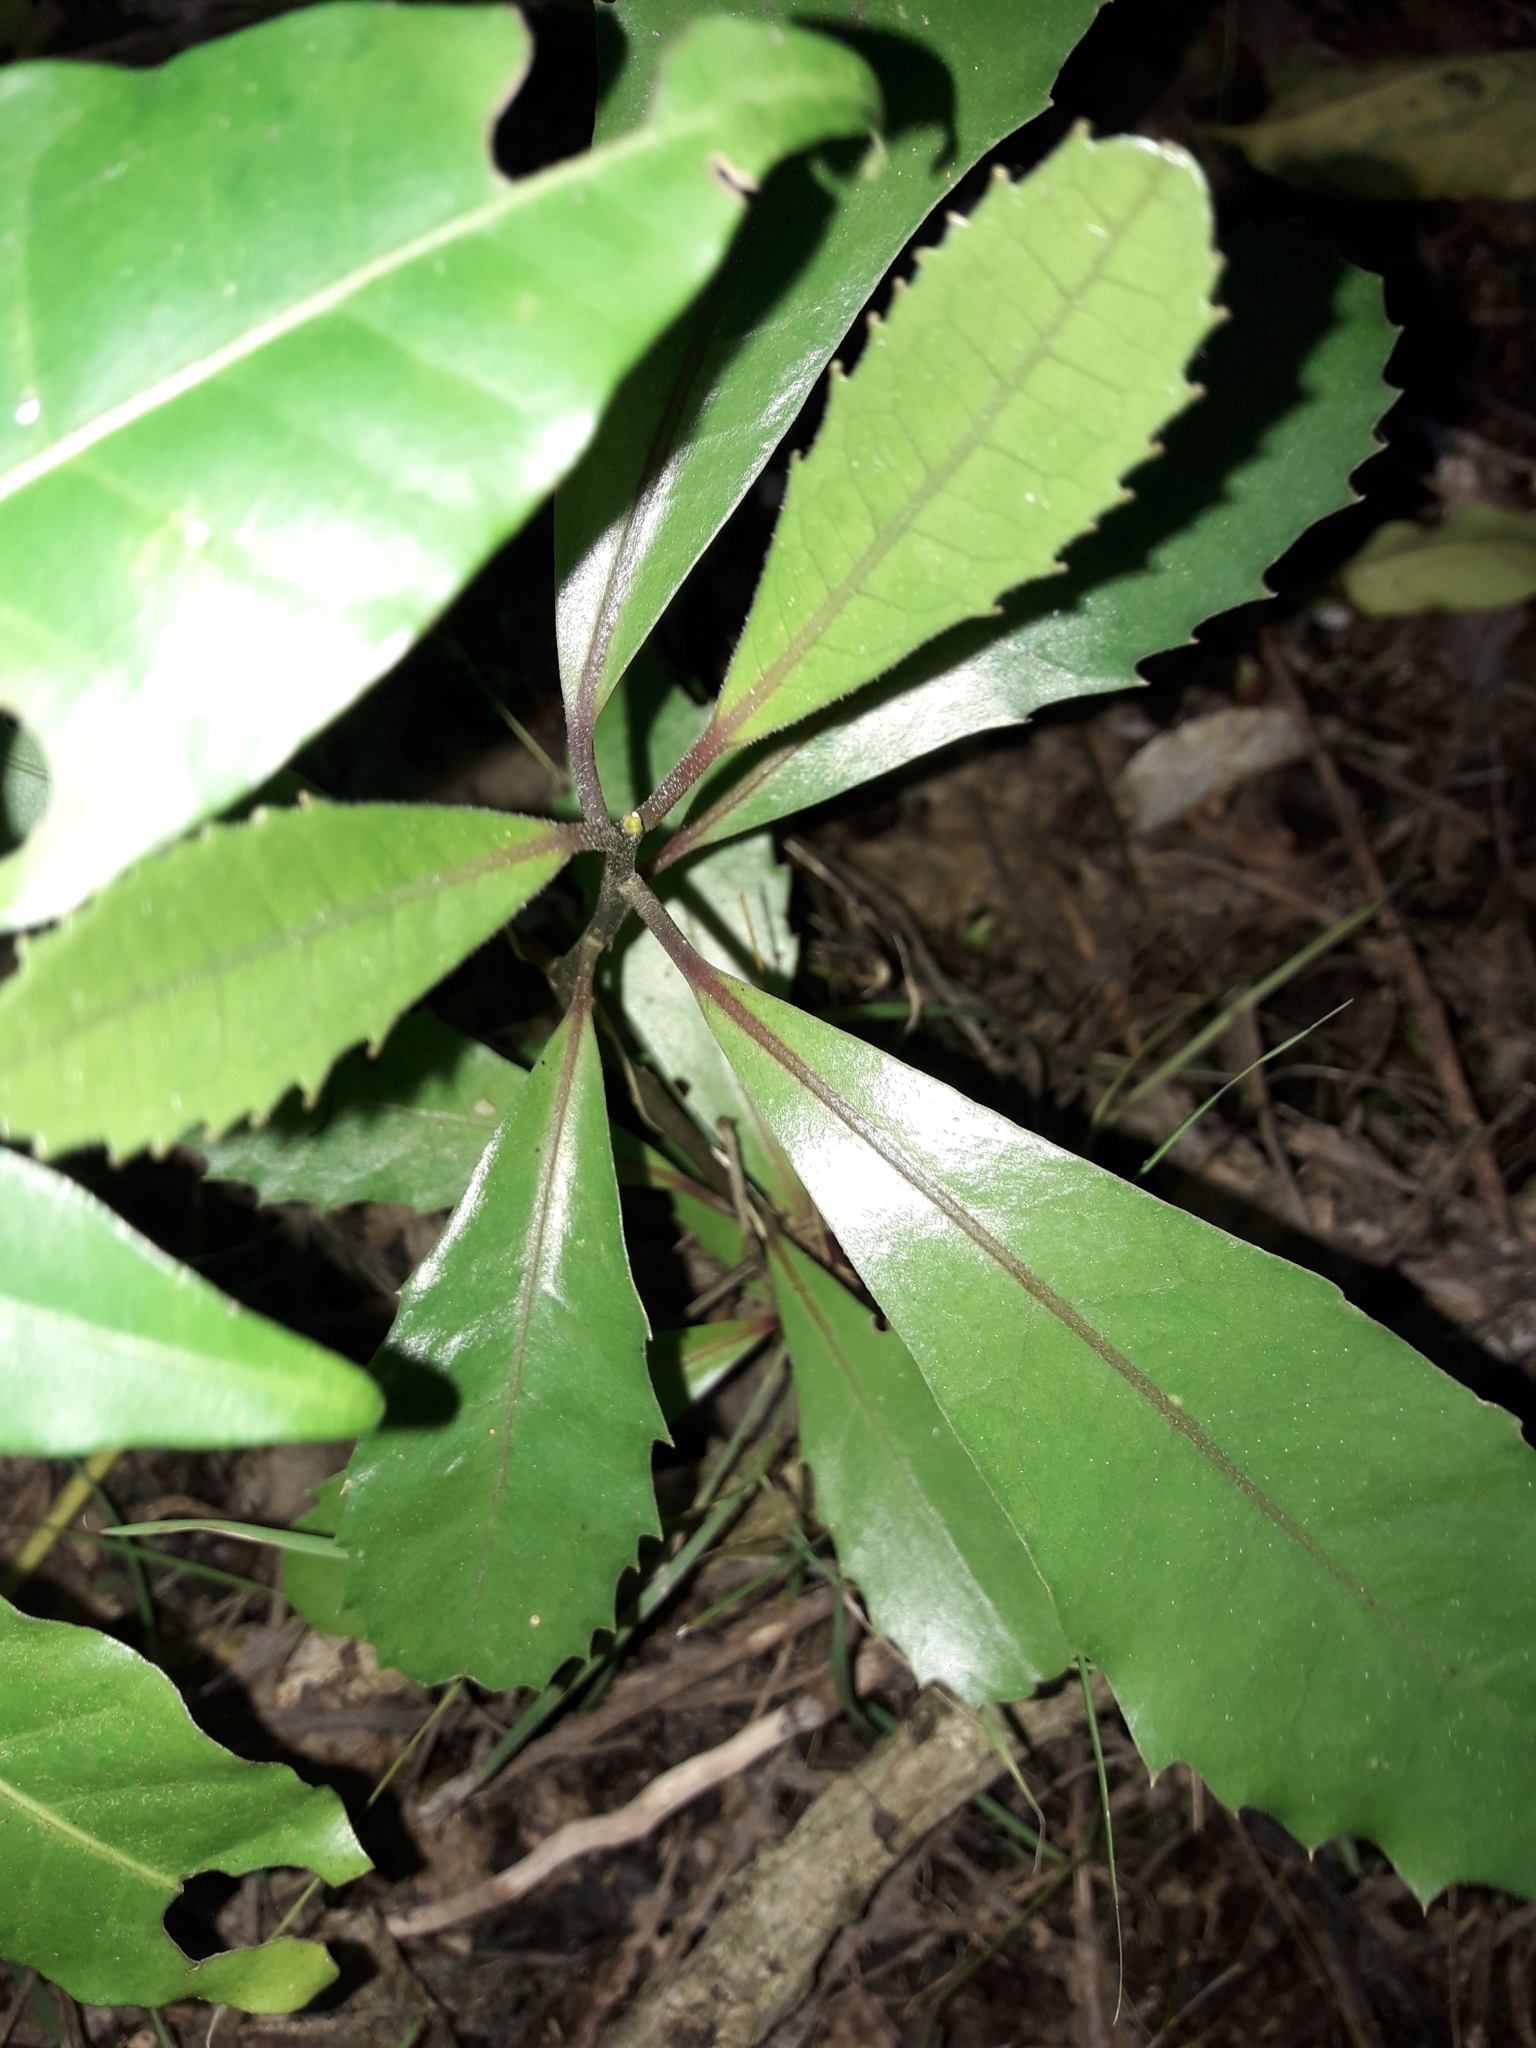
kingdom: Plantae
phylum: Tracheophyta
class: Magnoliopsida
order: Laurales
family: Monimiaceae
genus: Hedycarya
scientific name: Hedycarya arborea
